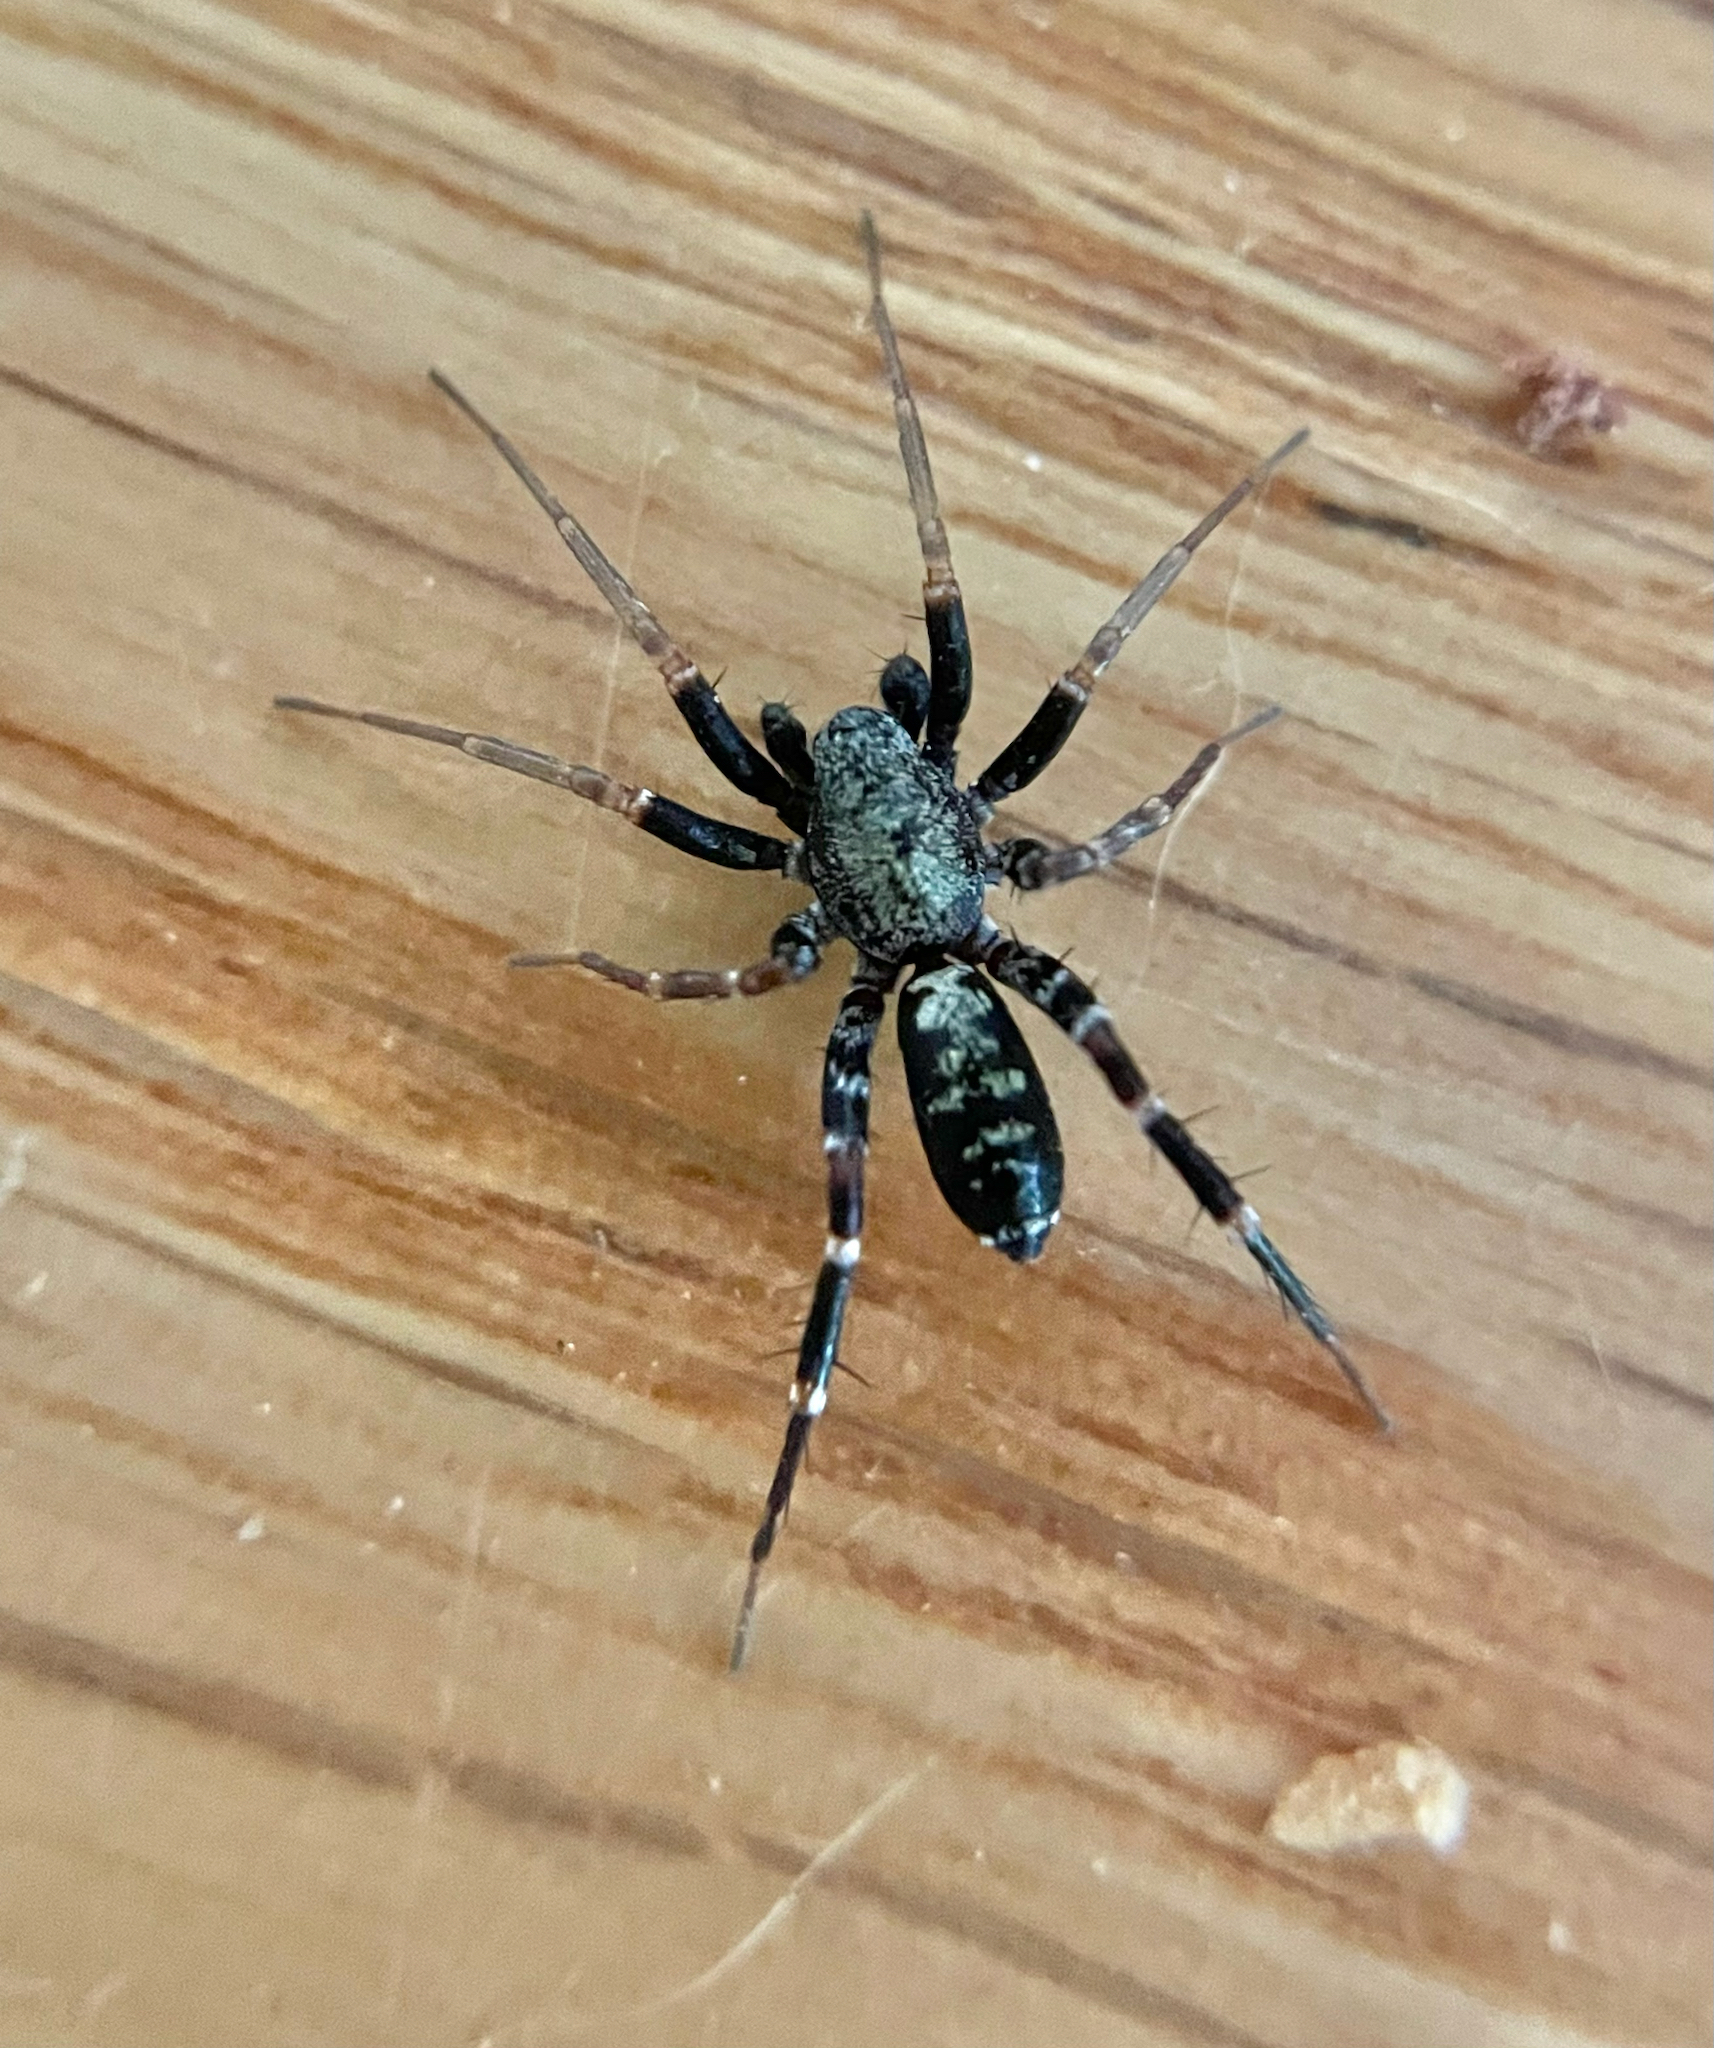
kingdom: Animalia
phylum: Arthropoda
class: Arachnida
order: Araneae
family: Corinnidae
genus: Castianeira
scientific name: Castianeira longipalpa
